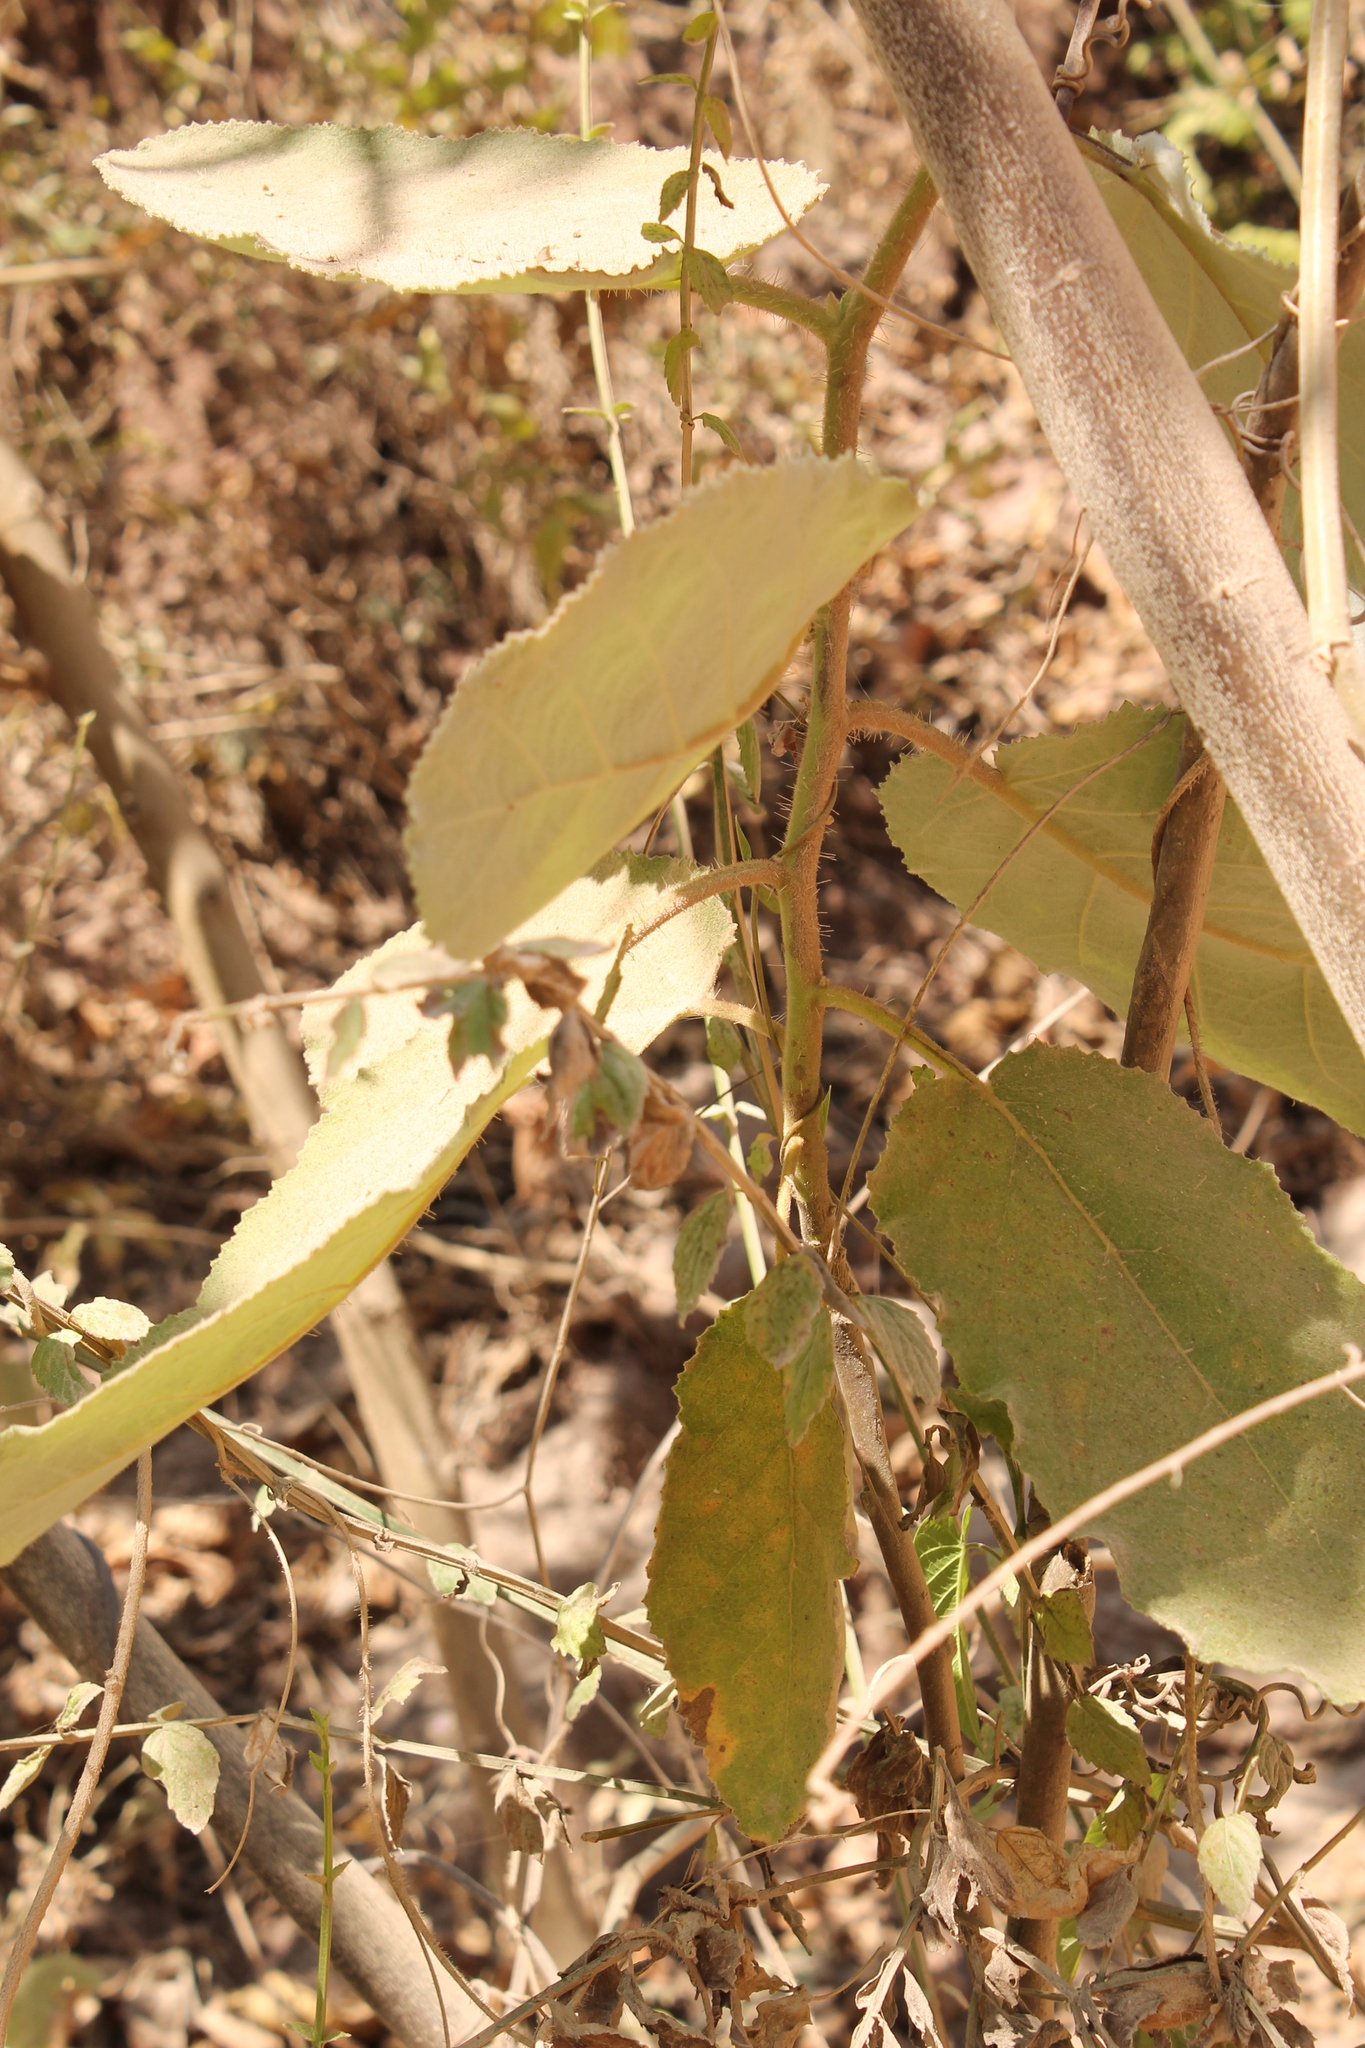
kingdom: Plantae
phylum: Tracheophyta
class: Magnoliopsida
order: Boraginales
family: Namaceae
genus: Wigandia
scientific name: Wigandia urens
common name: Caracus wigandia
